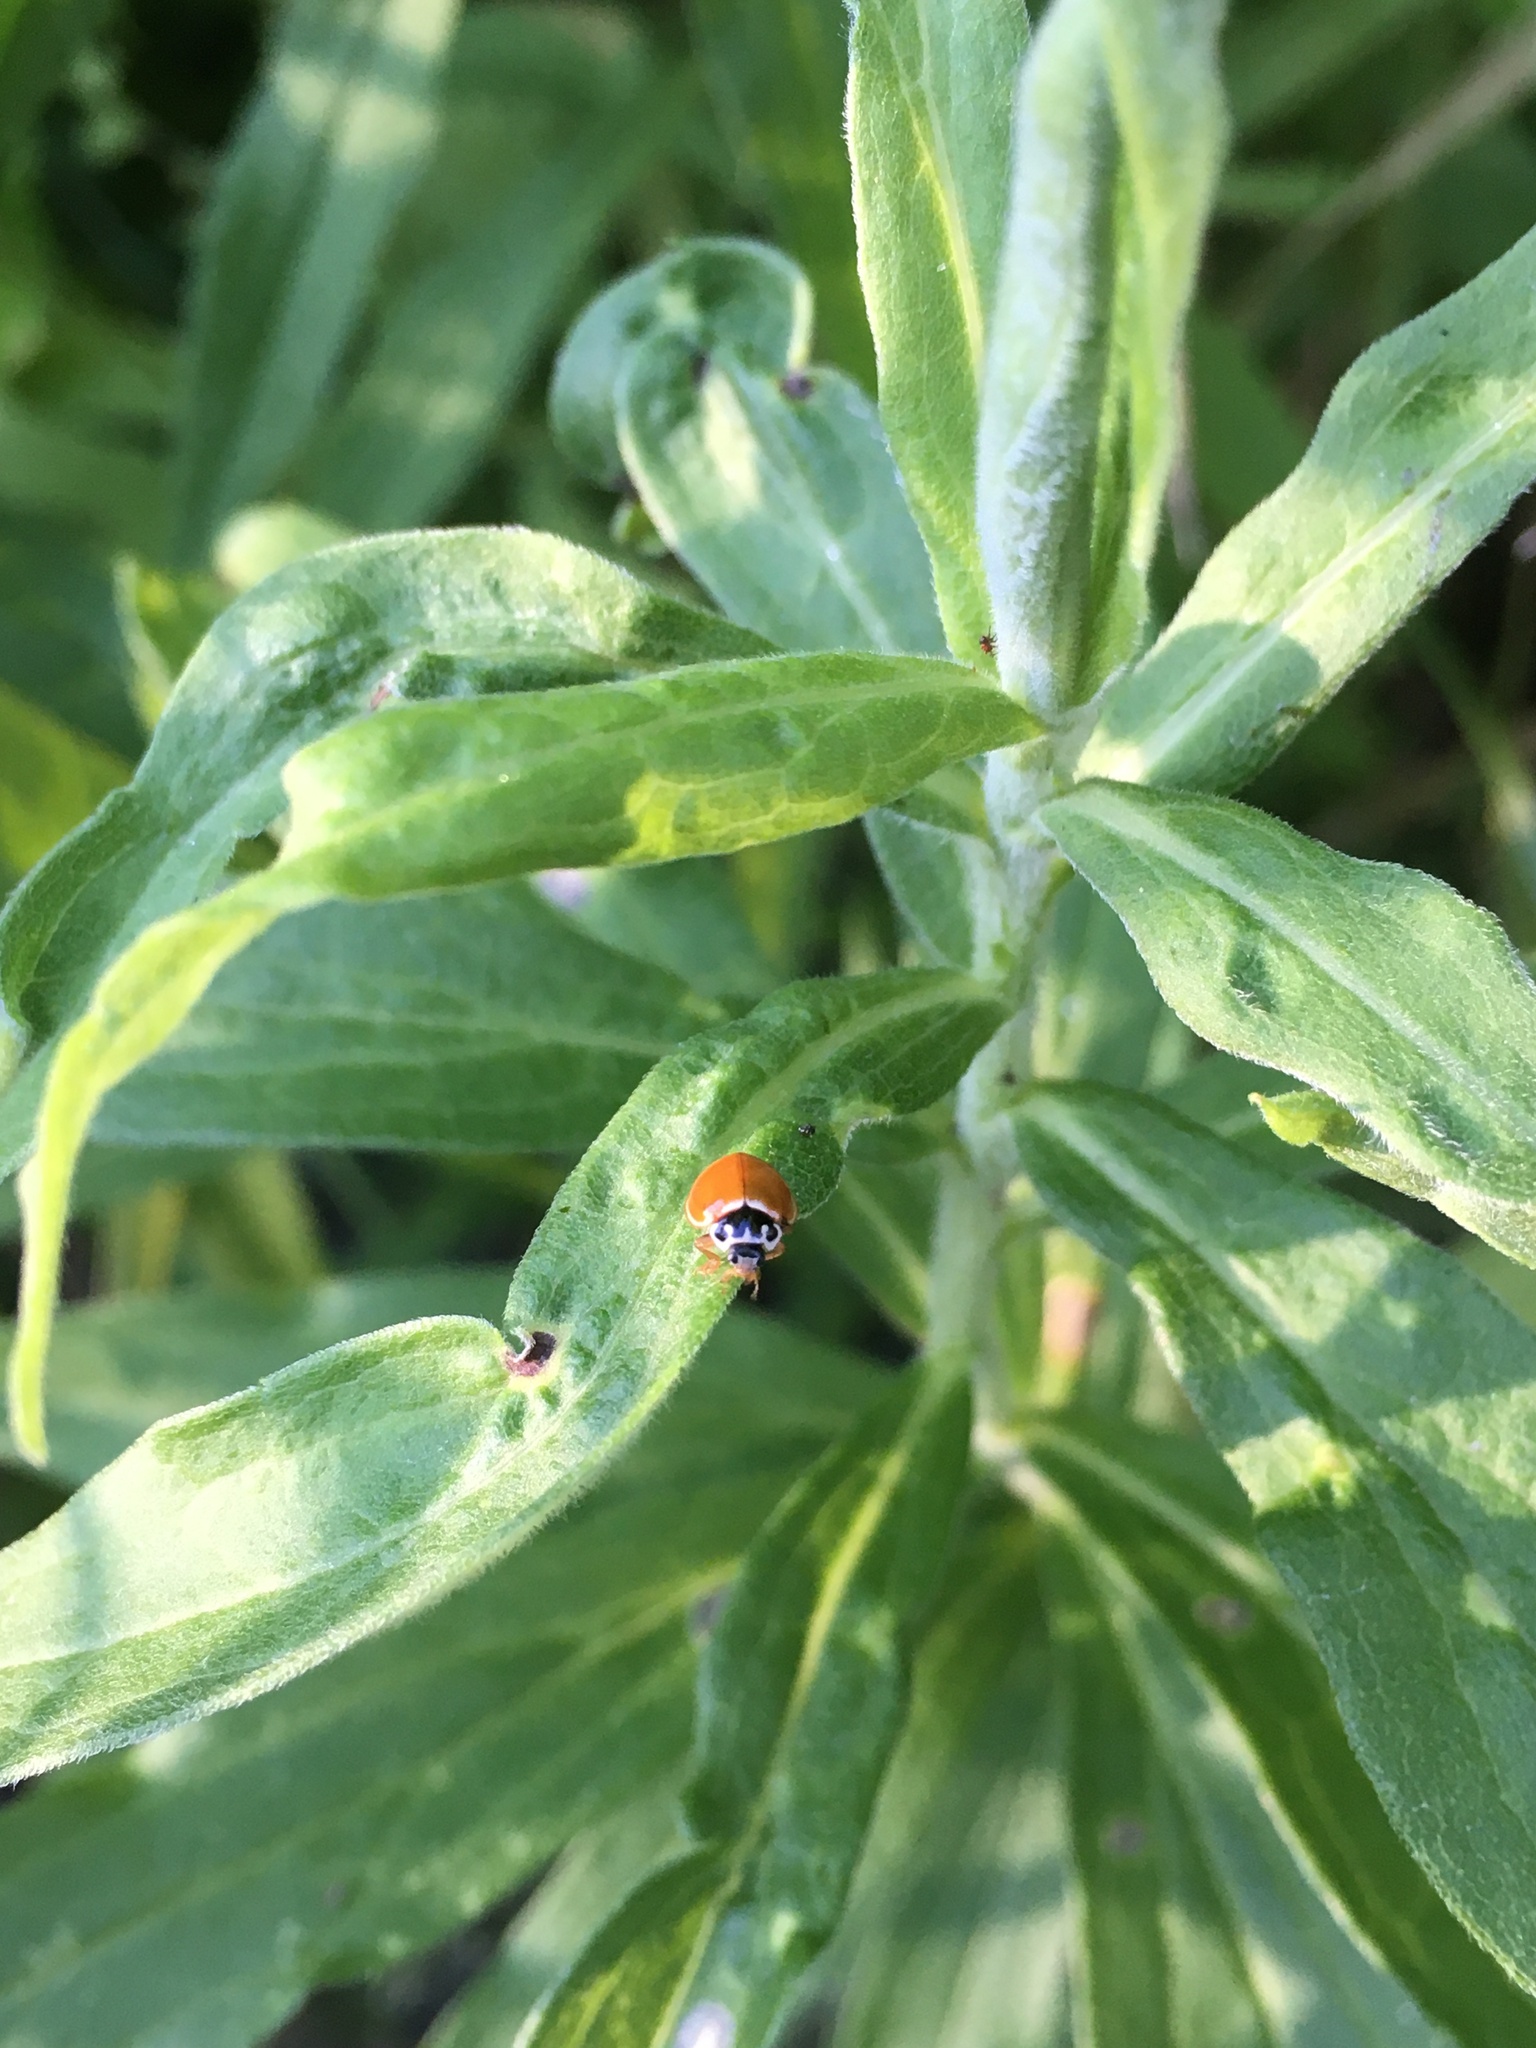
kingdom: Animalia
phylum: Arthropoda
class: Insecta
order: Coleoptera
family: Coccinellidae
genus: Cycloneda
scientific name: Cycloneda munda
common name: Polished lady beetle
